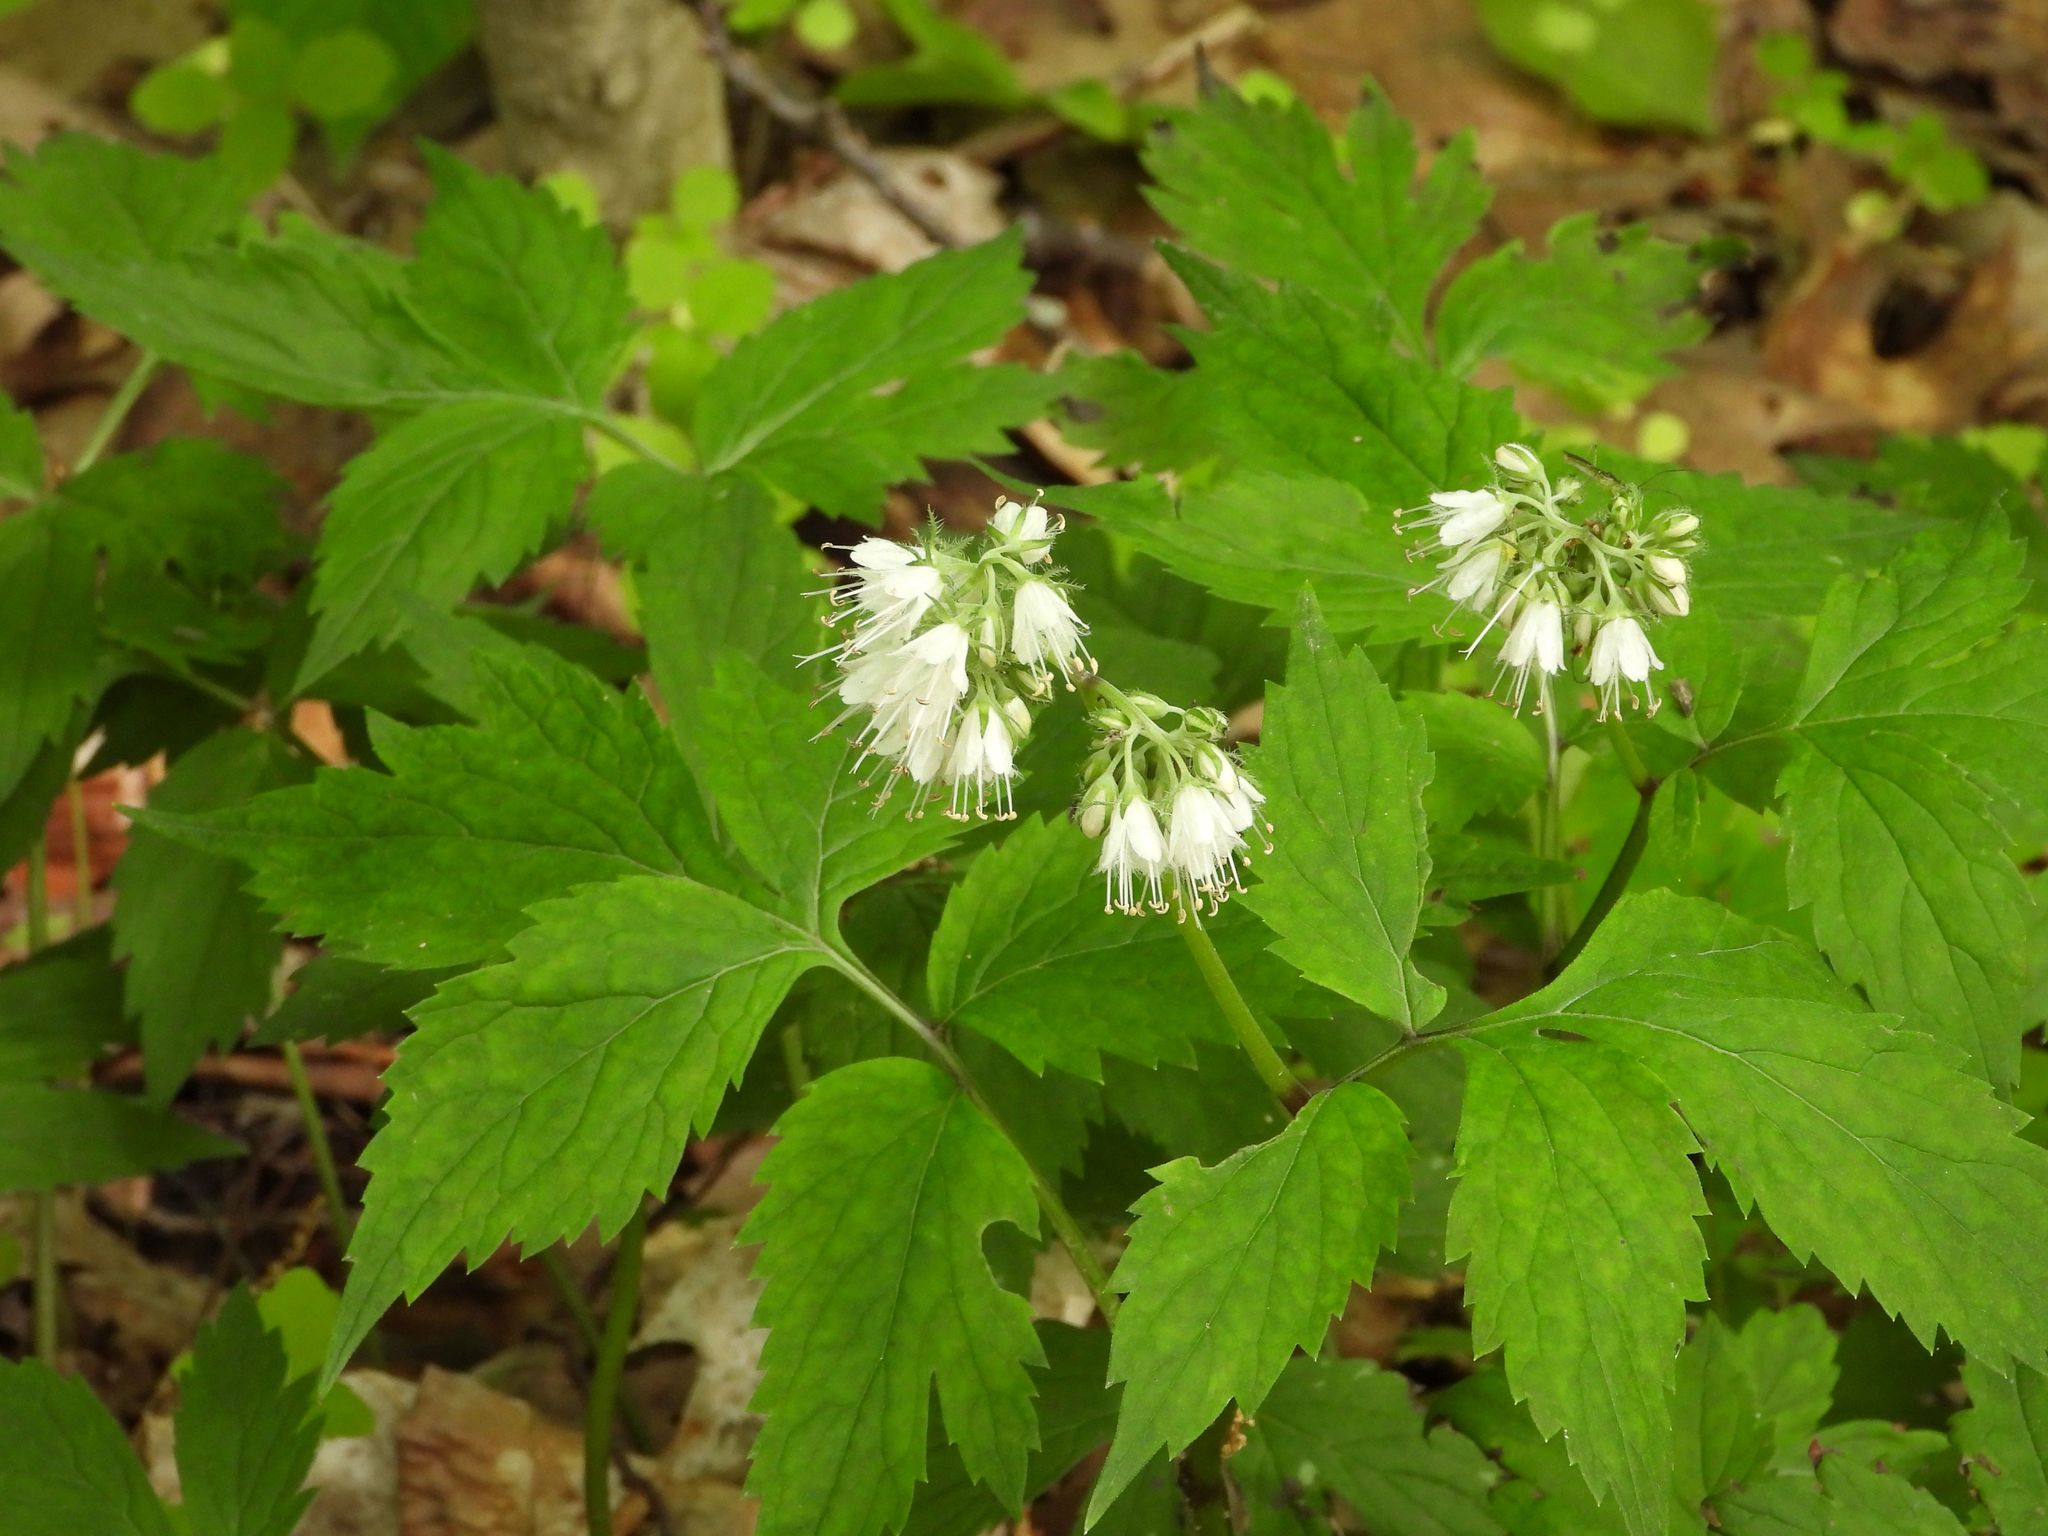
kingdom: Plantae
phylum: Tracheophyta
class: Magnoliopsida
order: Boraginales
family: Hydrophyllaceae
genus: Hydrophyllum
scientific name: Hydrophyllum virginianum
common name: Virginia waterleaf
